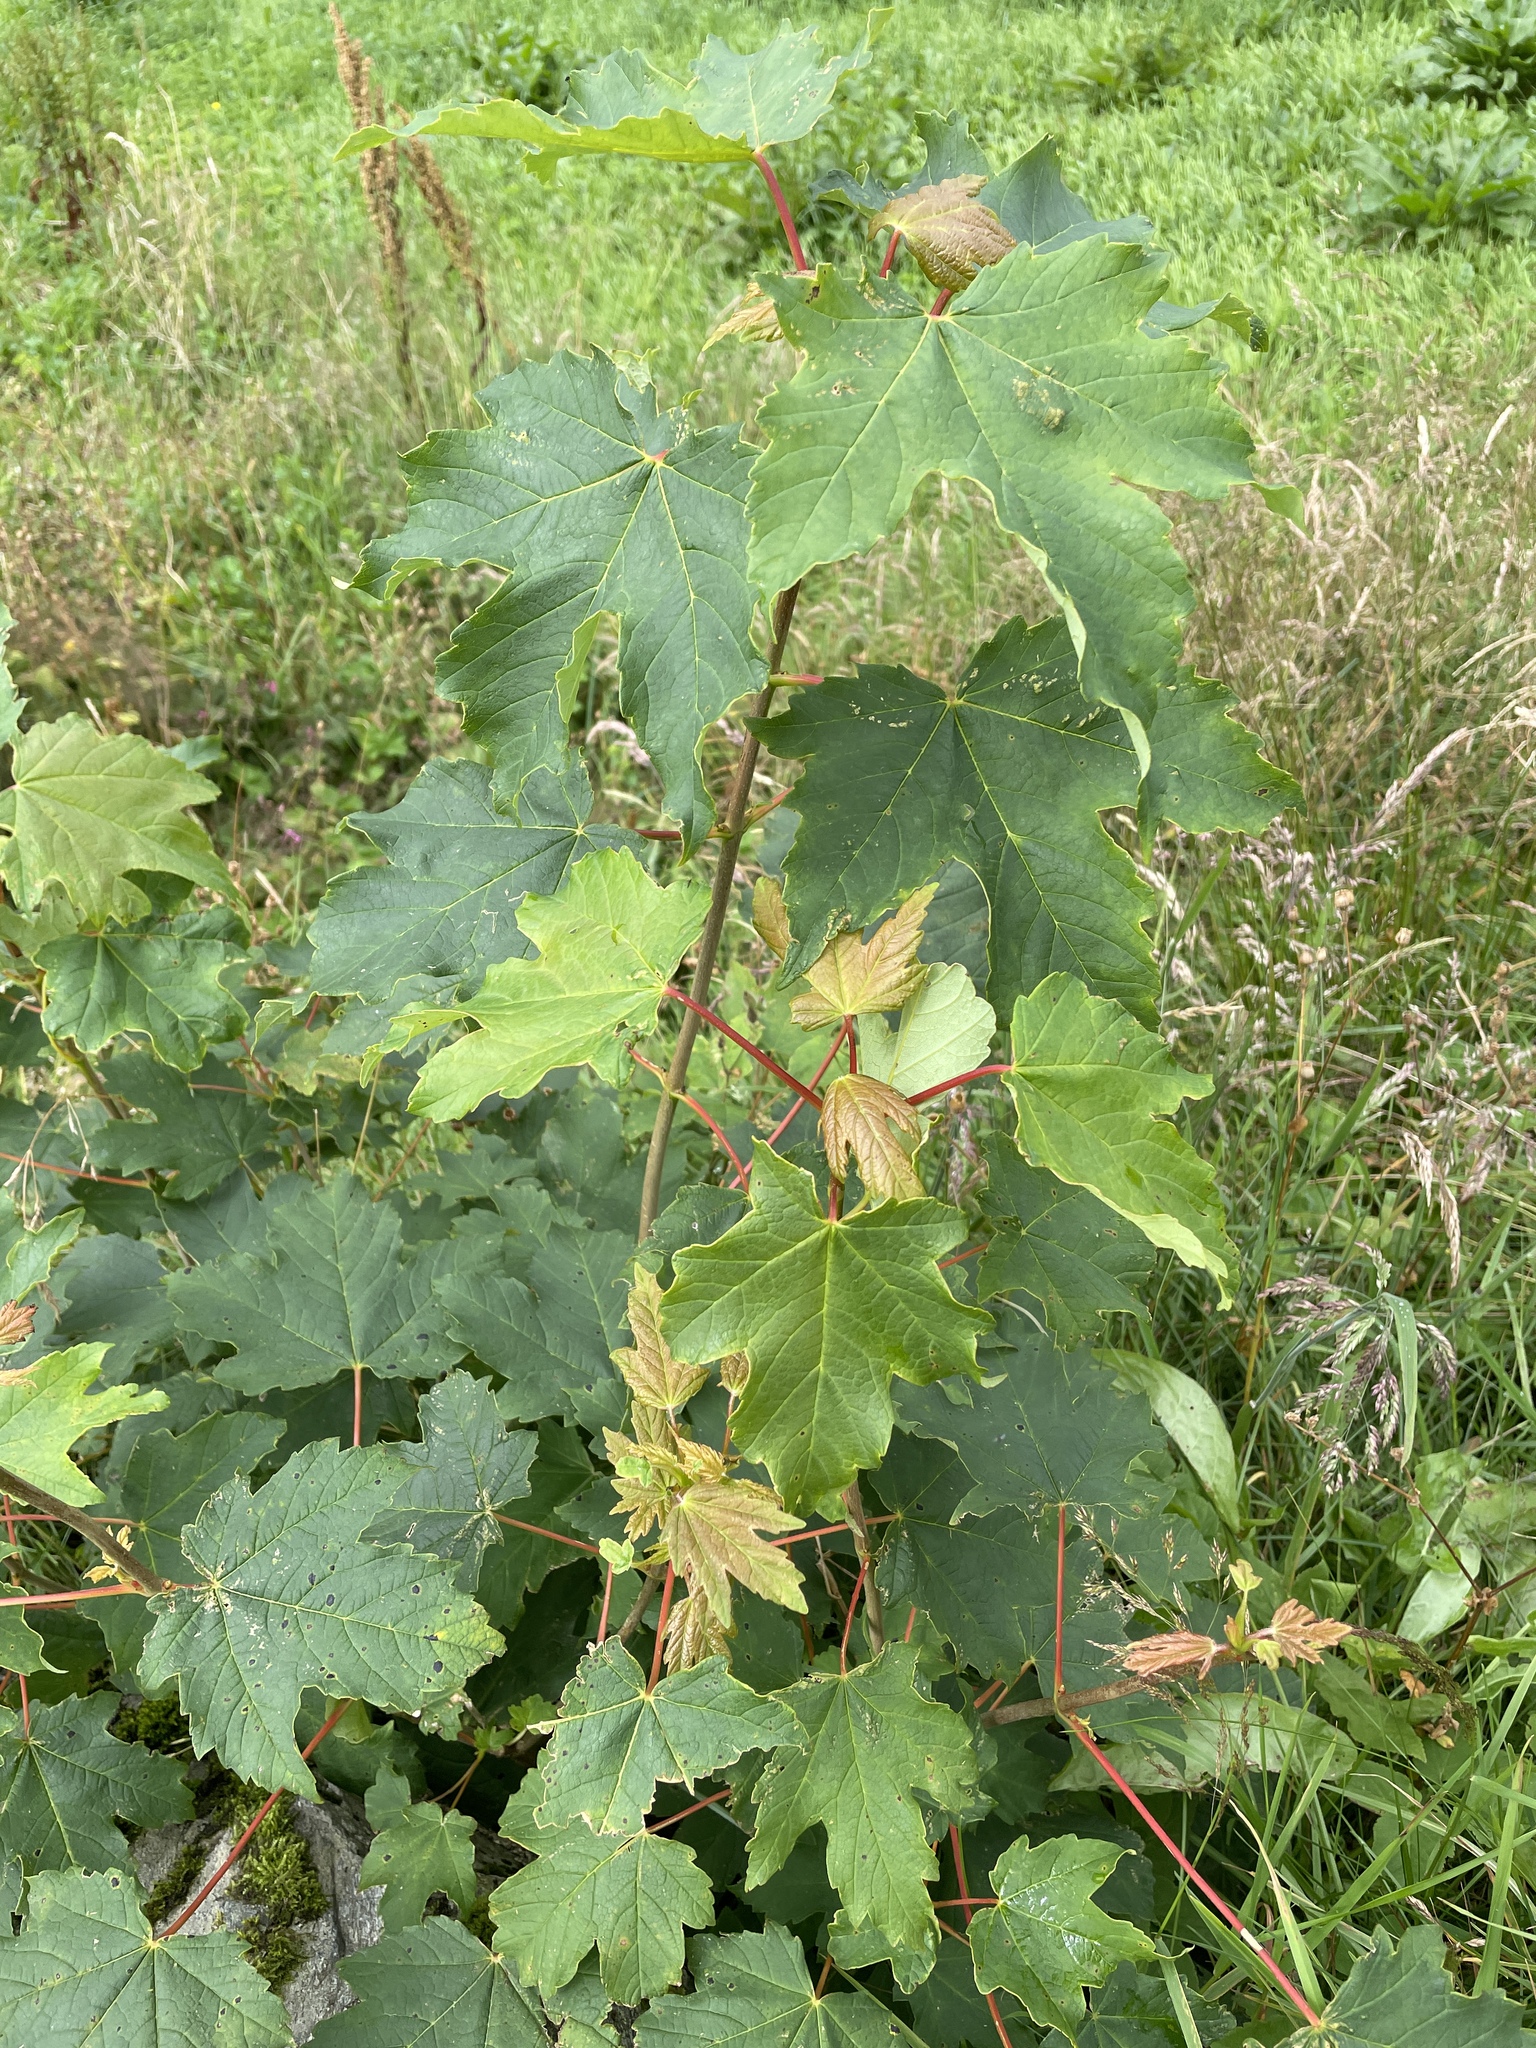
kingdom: Plantae
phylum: Tracheophyta
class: Magnoliopsida
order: Sapindales
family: Sapindaceae
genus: Acer
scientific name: Acer pseudoplatanus
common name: Sycamore
